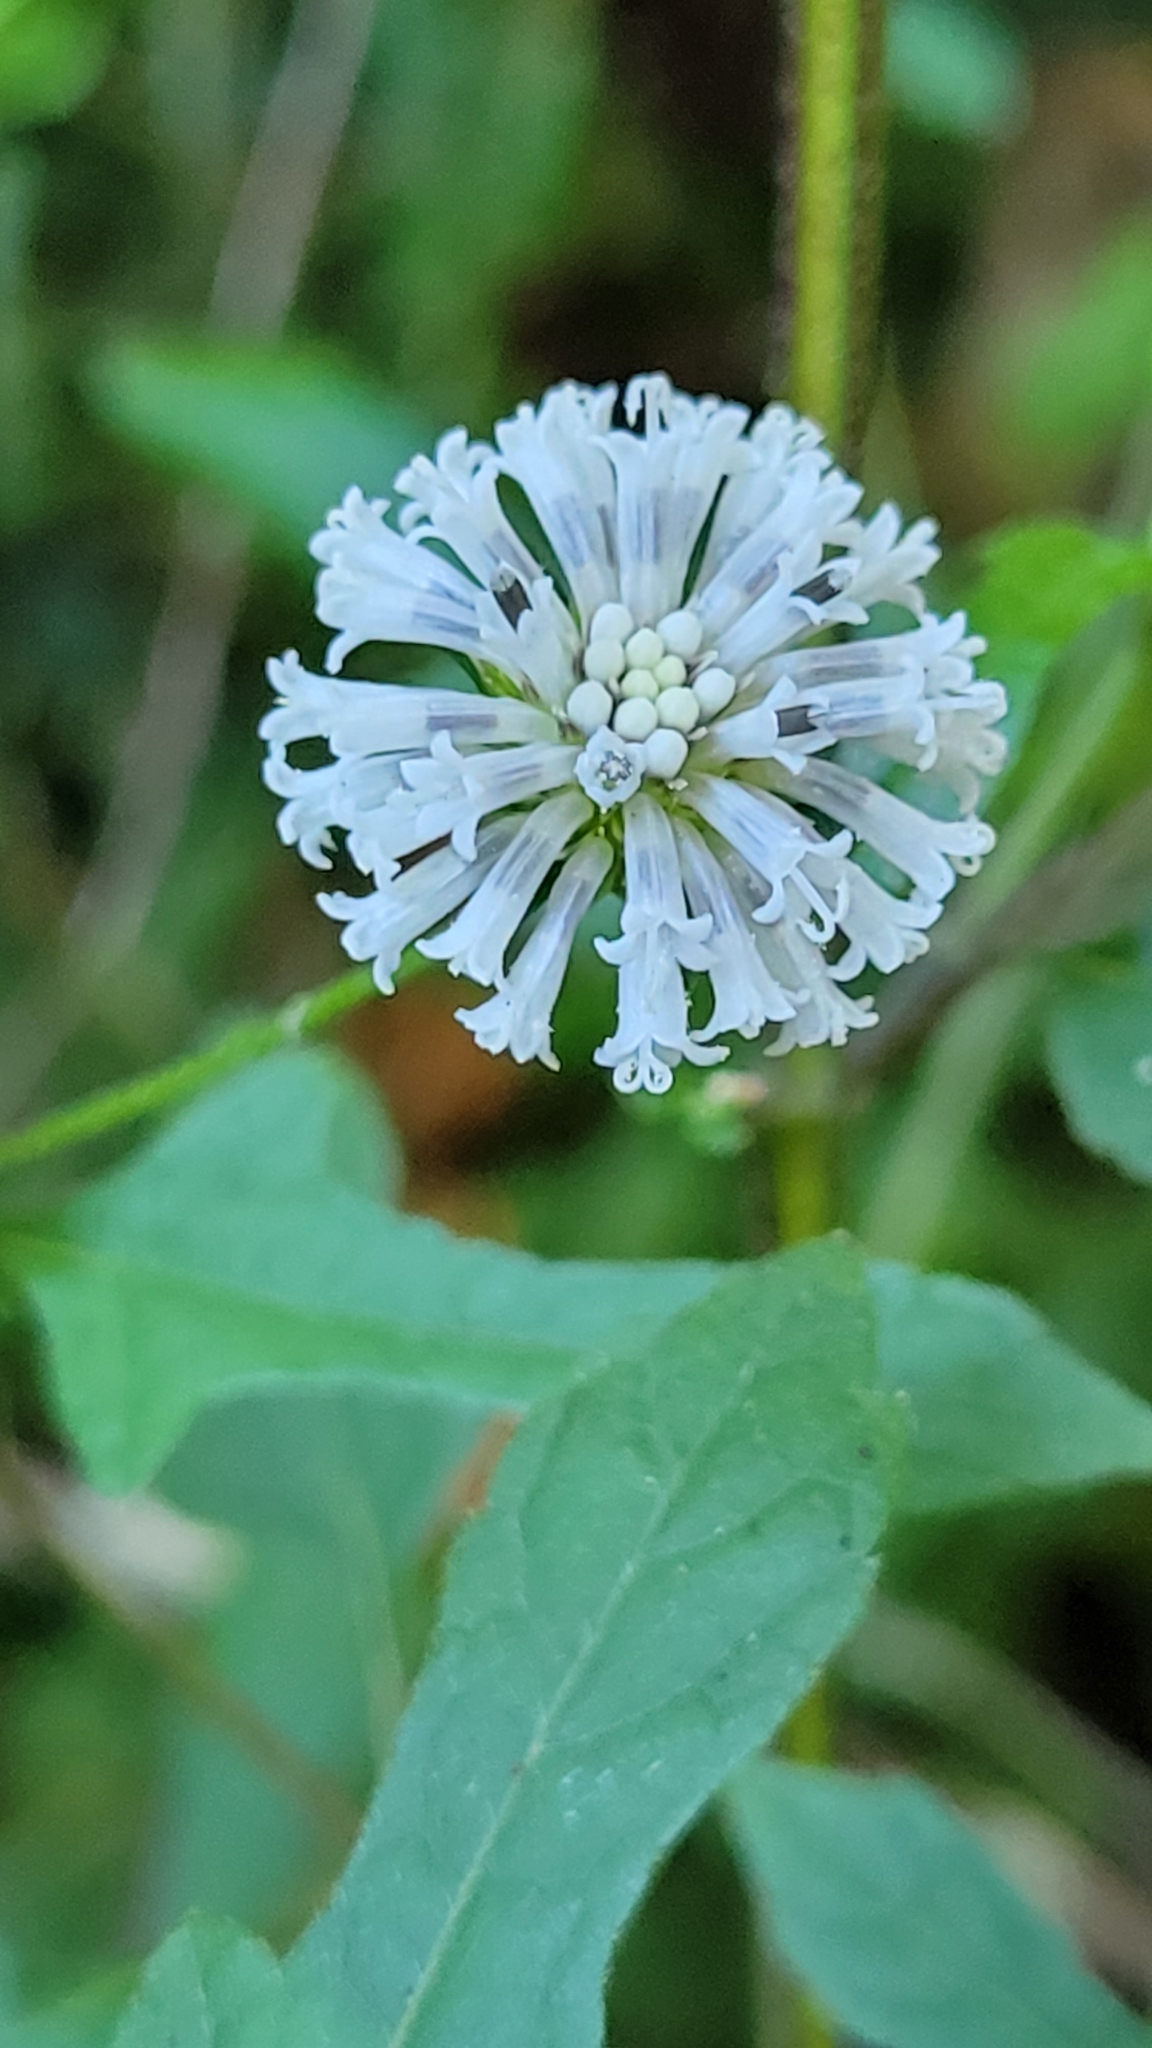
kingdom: Plantae
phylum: Tracheophyta
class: Magnoliopsida
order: Asterales
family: Asteraceae
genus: Melanthera
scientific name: Melanthera nivea
